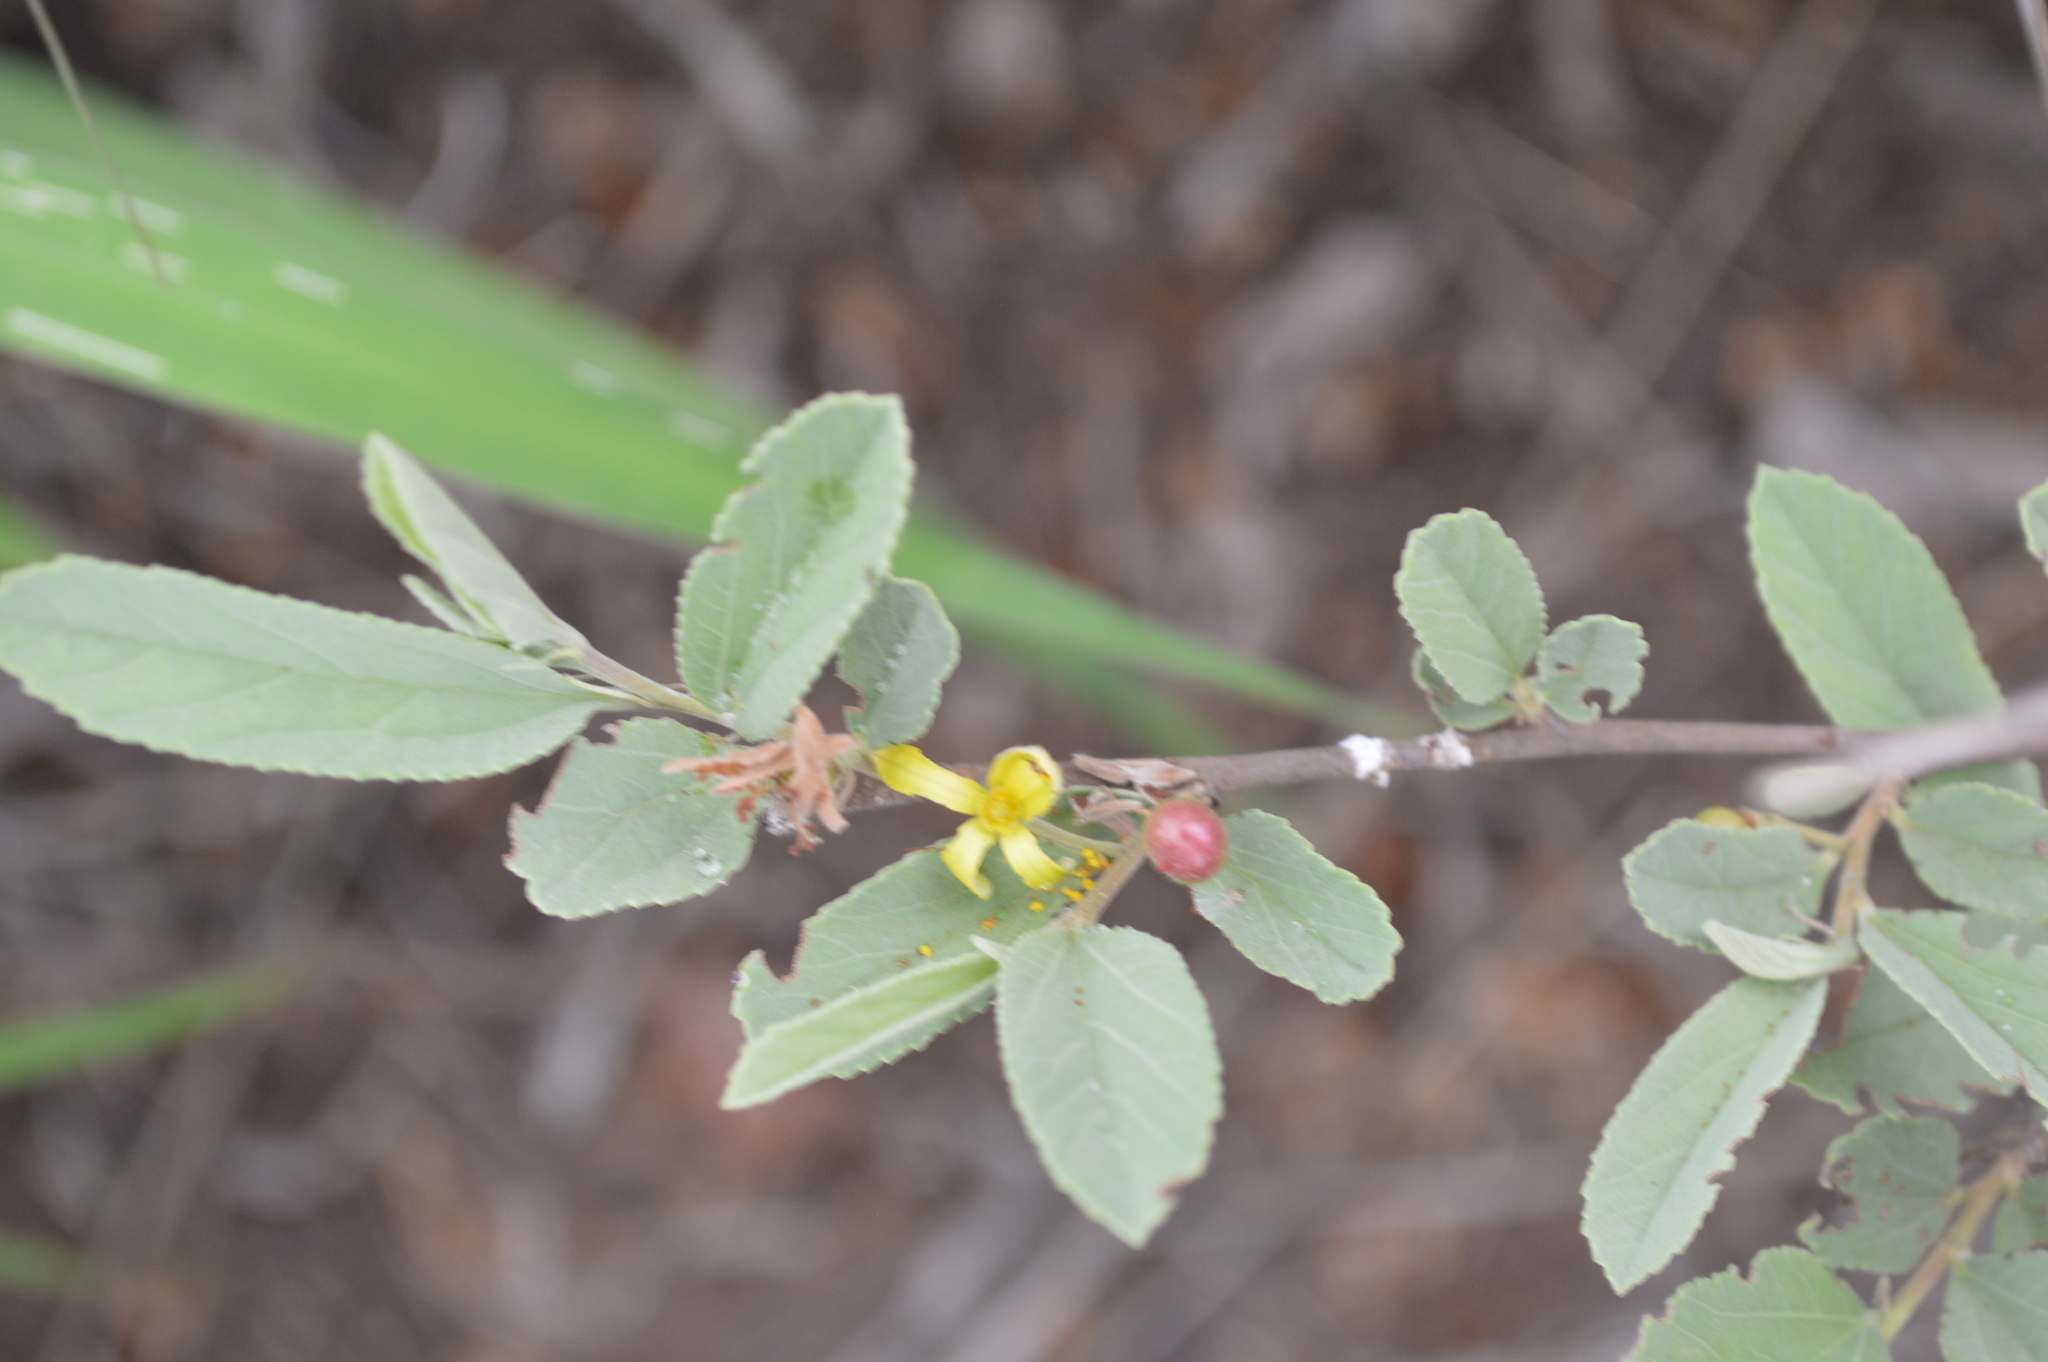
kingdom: Plantae
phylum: Tracheophyta
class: Magnoliopsida
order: Malvales
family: Malvaceae
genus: Grewia
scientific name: Grewia flava
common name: Brandy bush
